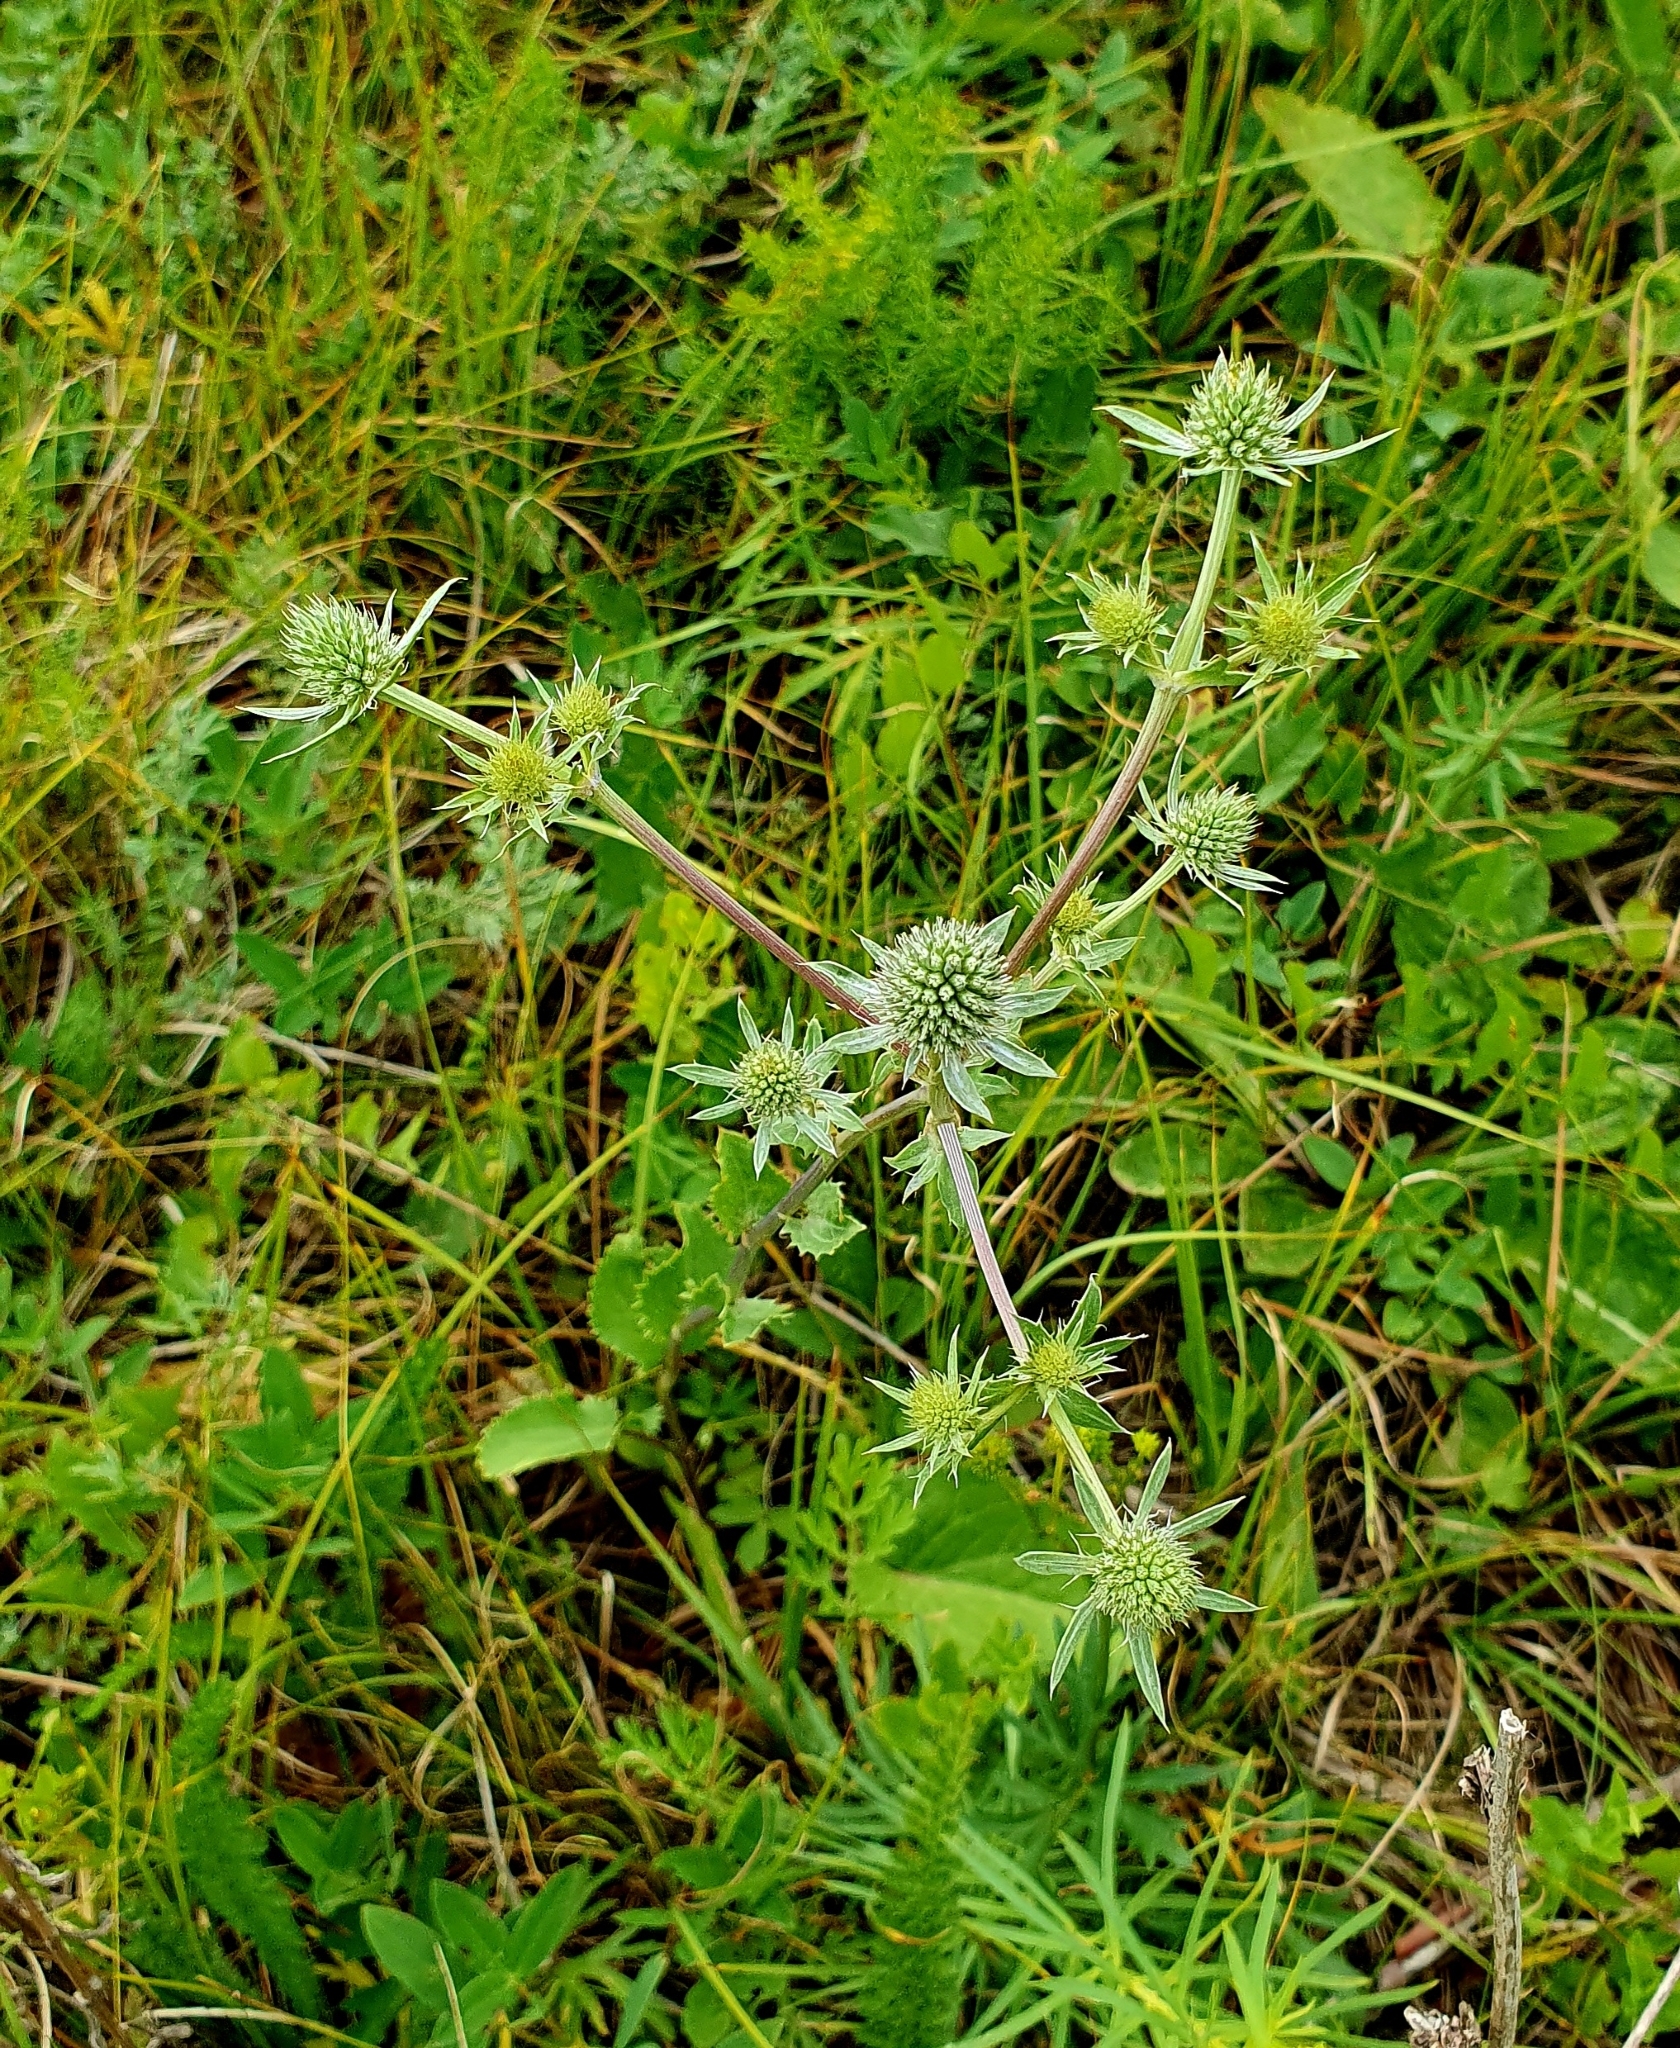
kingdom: Plantae
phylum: Tracheophyta
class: Magnoliopsida
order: Apiales
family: Apiaceae
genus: Eryngium
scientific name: Eryngium planum
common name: Blue eryngo
